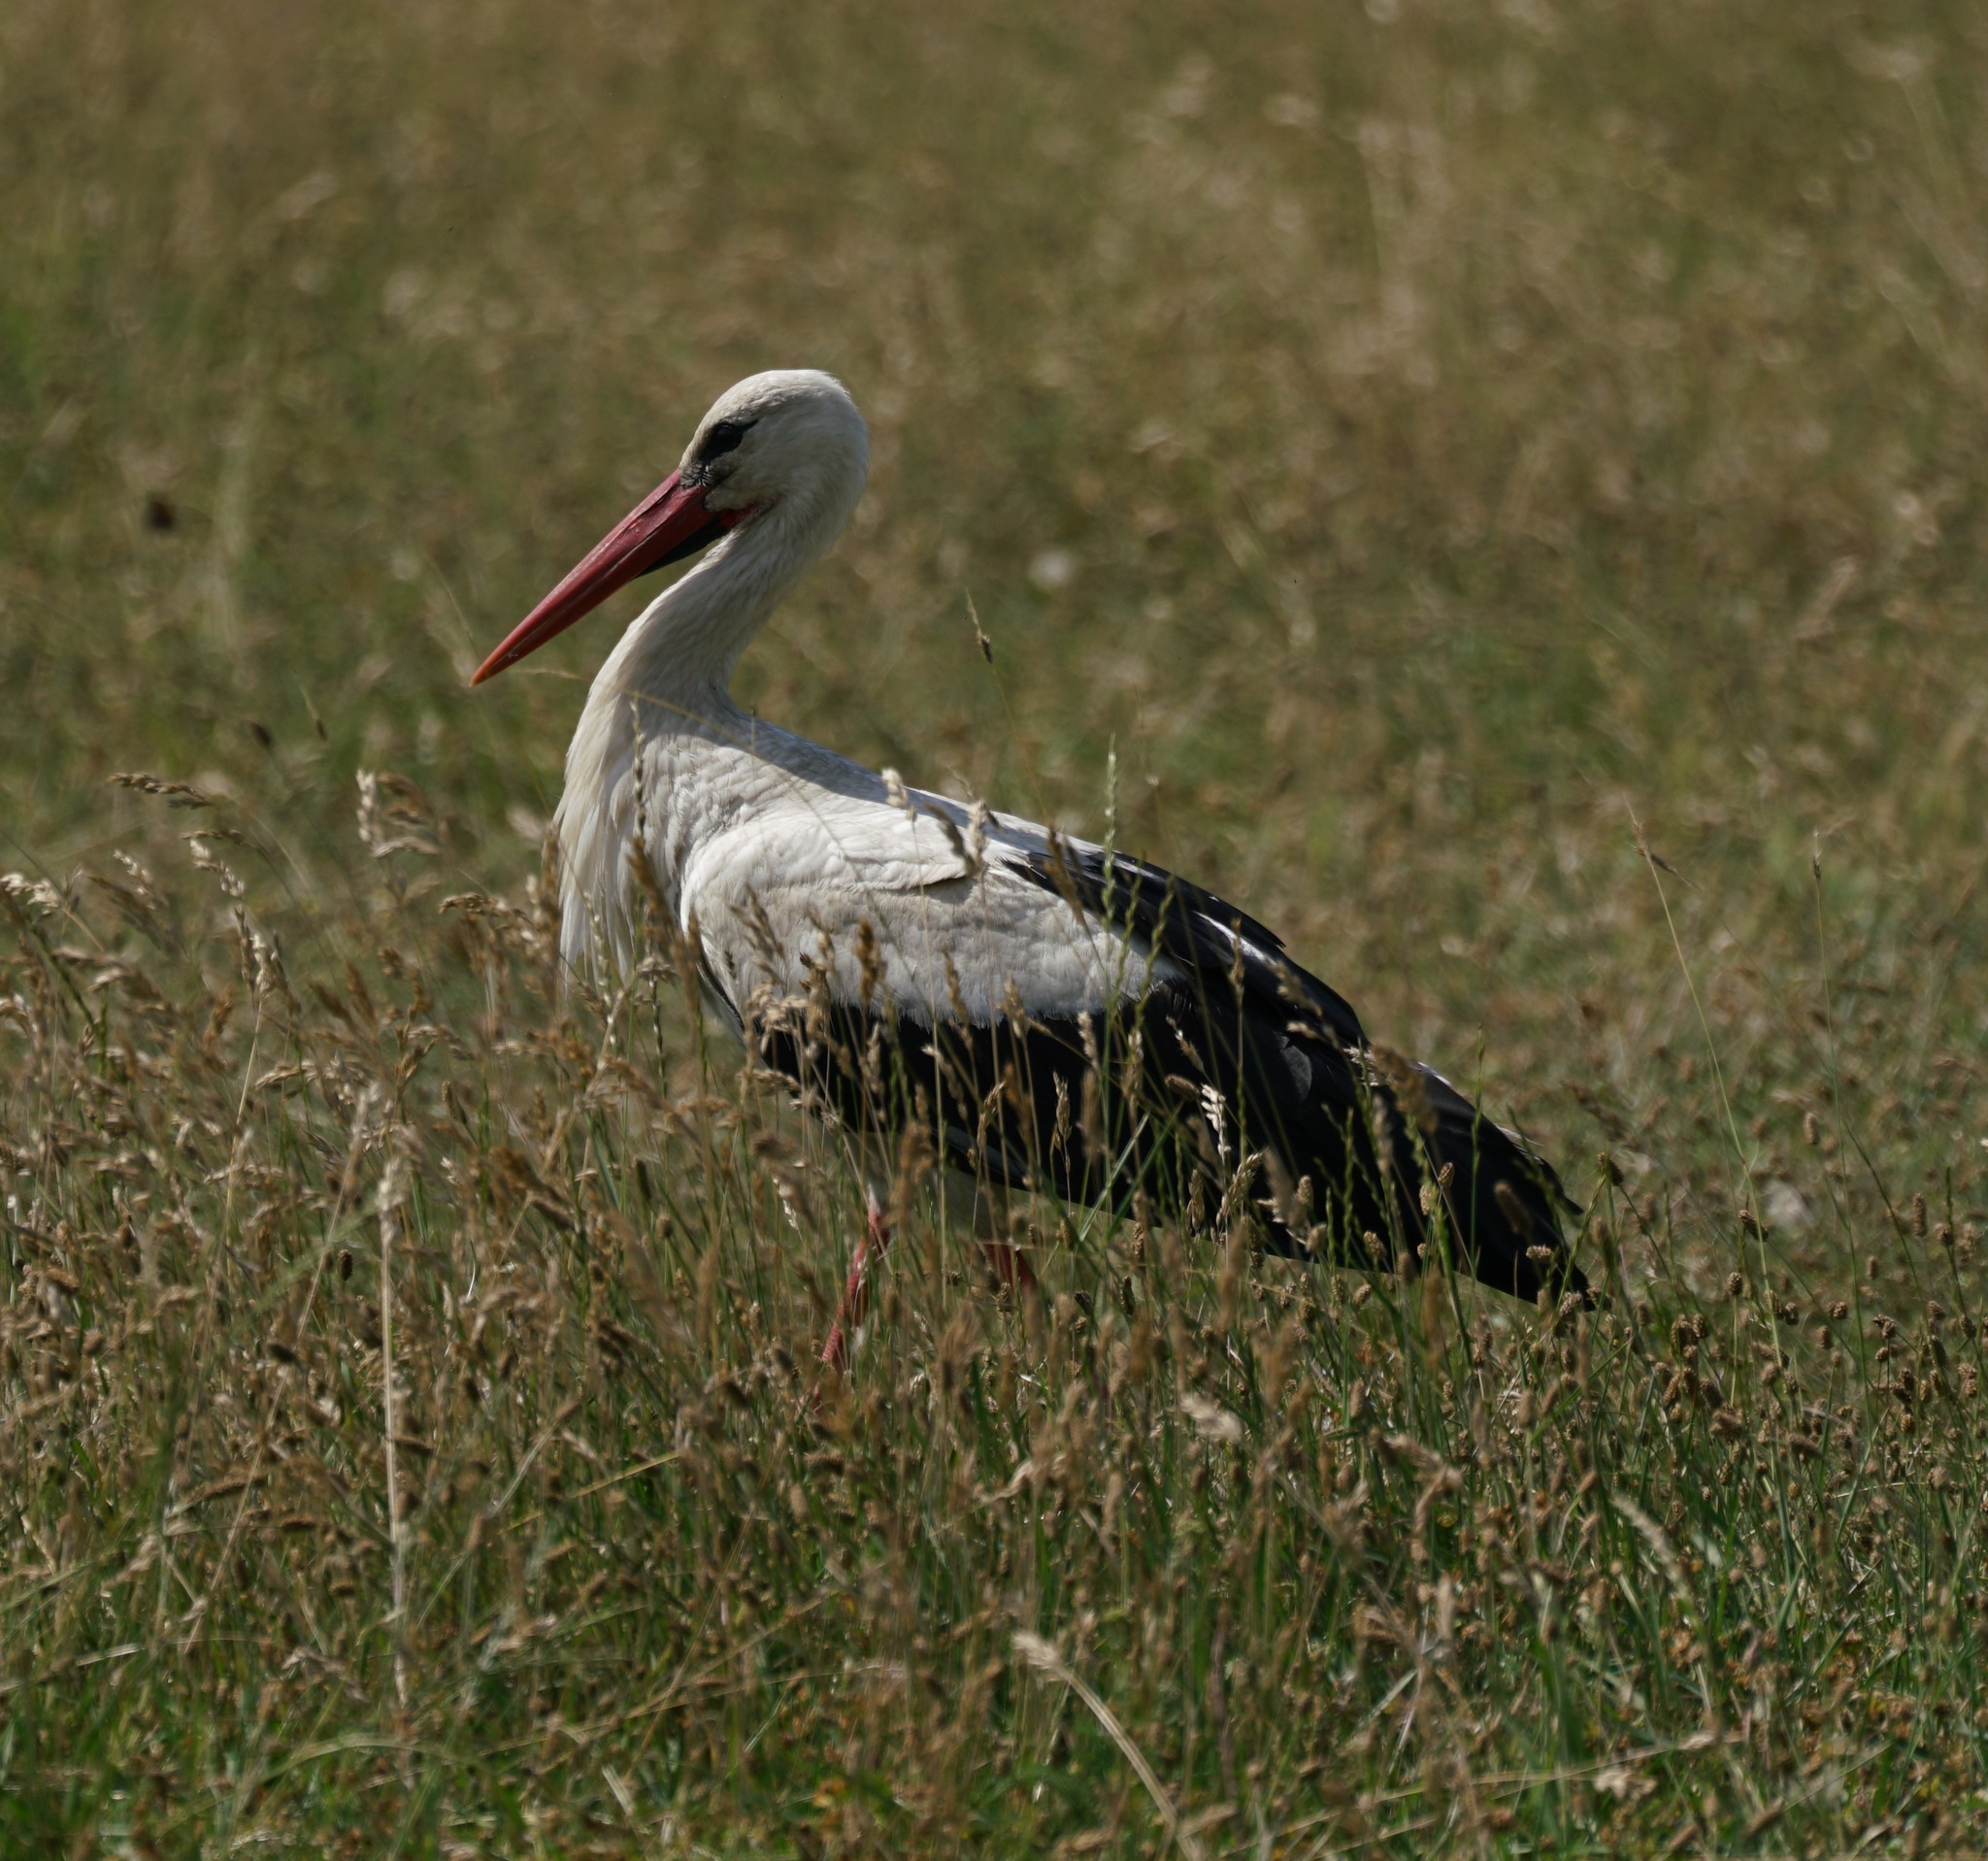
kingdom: Animalia
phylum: Chordata
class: Aves
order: Ciconiiformes
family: Ciconiidae
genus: Ciconia
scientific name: Ciconia ciconia
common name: White stork
